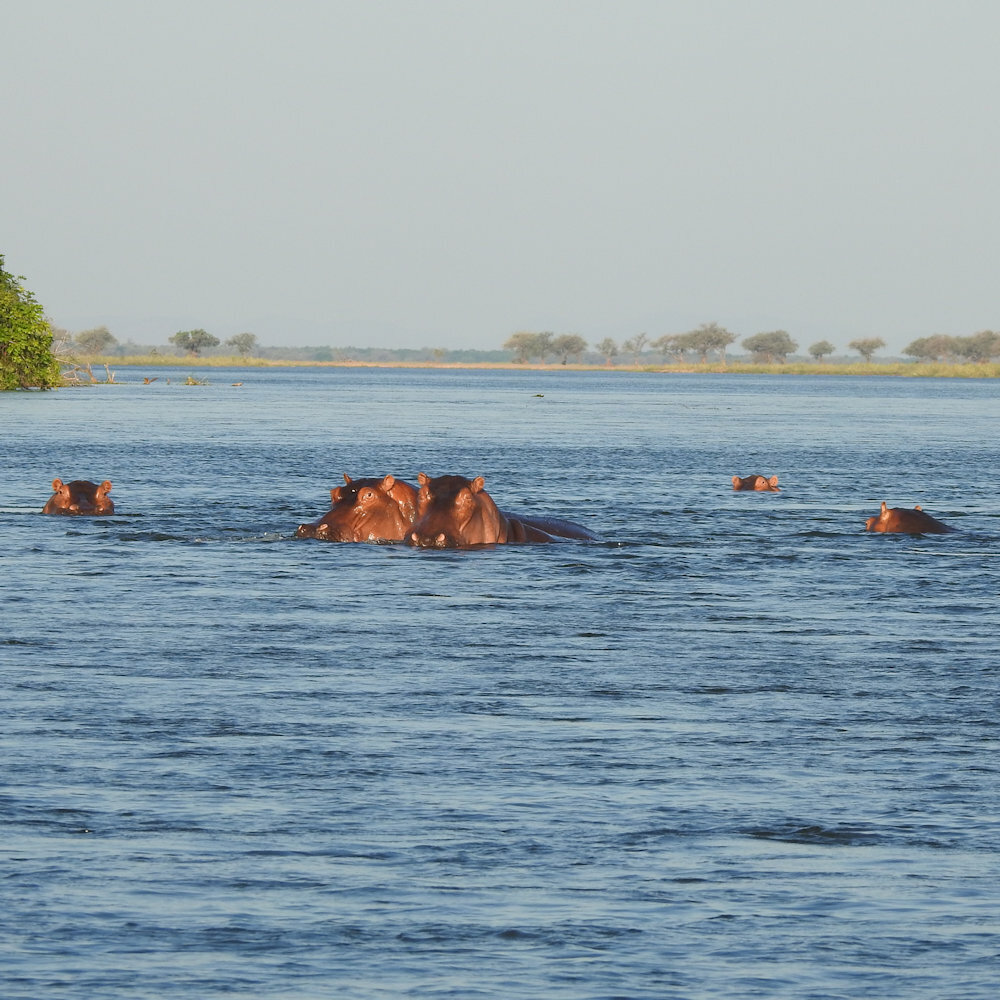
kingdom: Animalia
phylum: Chordata
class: Mammalia
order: Artiodactyla
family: Hippopotamidae
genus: Hippopotamus
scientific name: Hippopotamus amphibius
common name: Common hippopotamus
